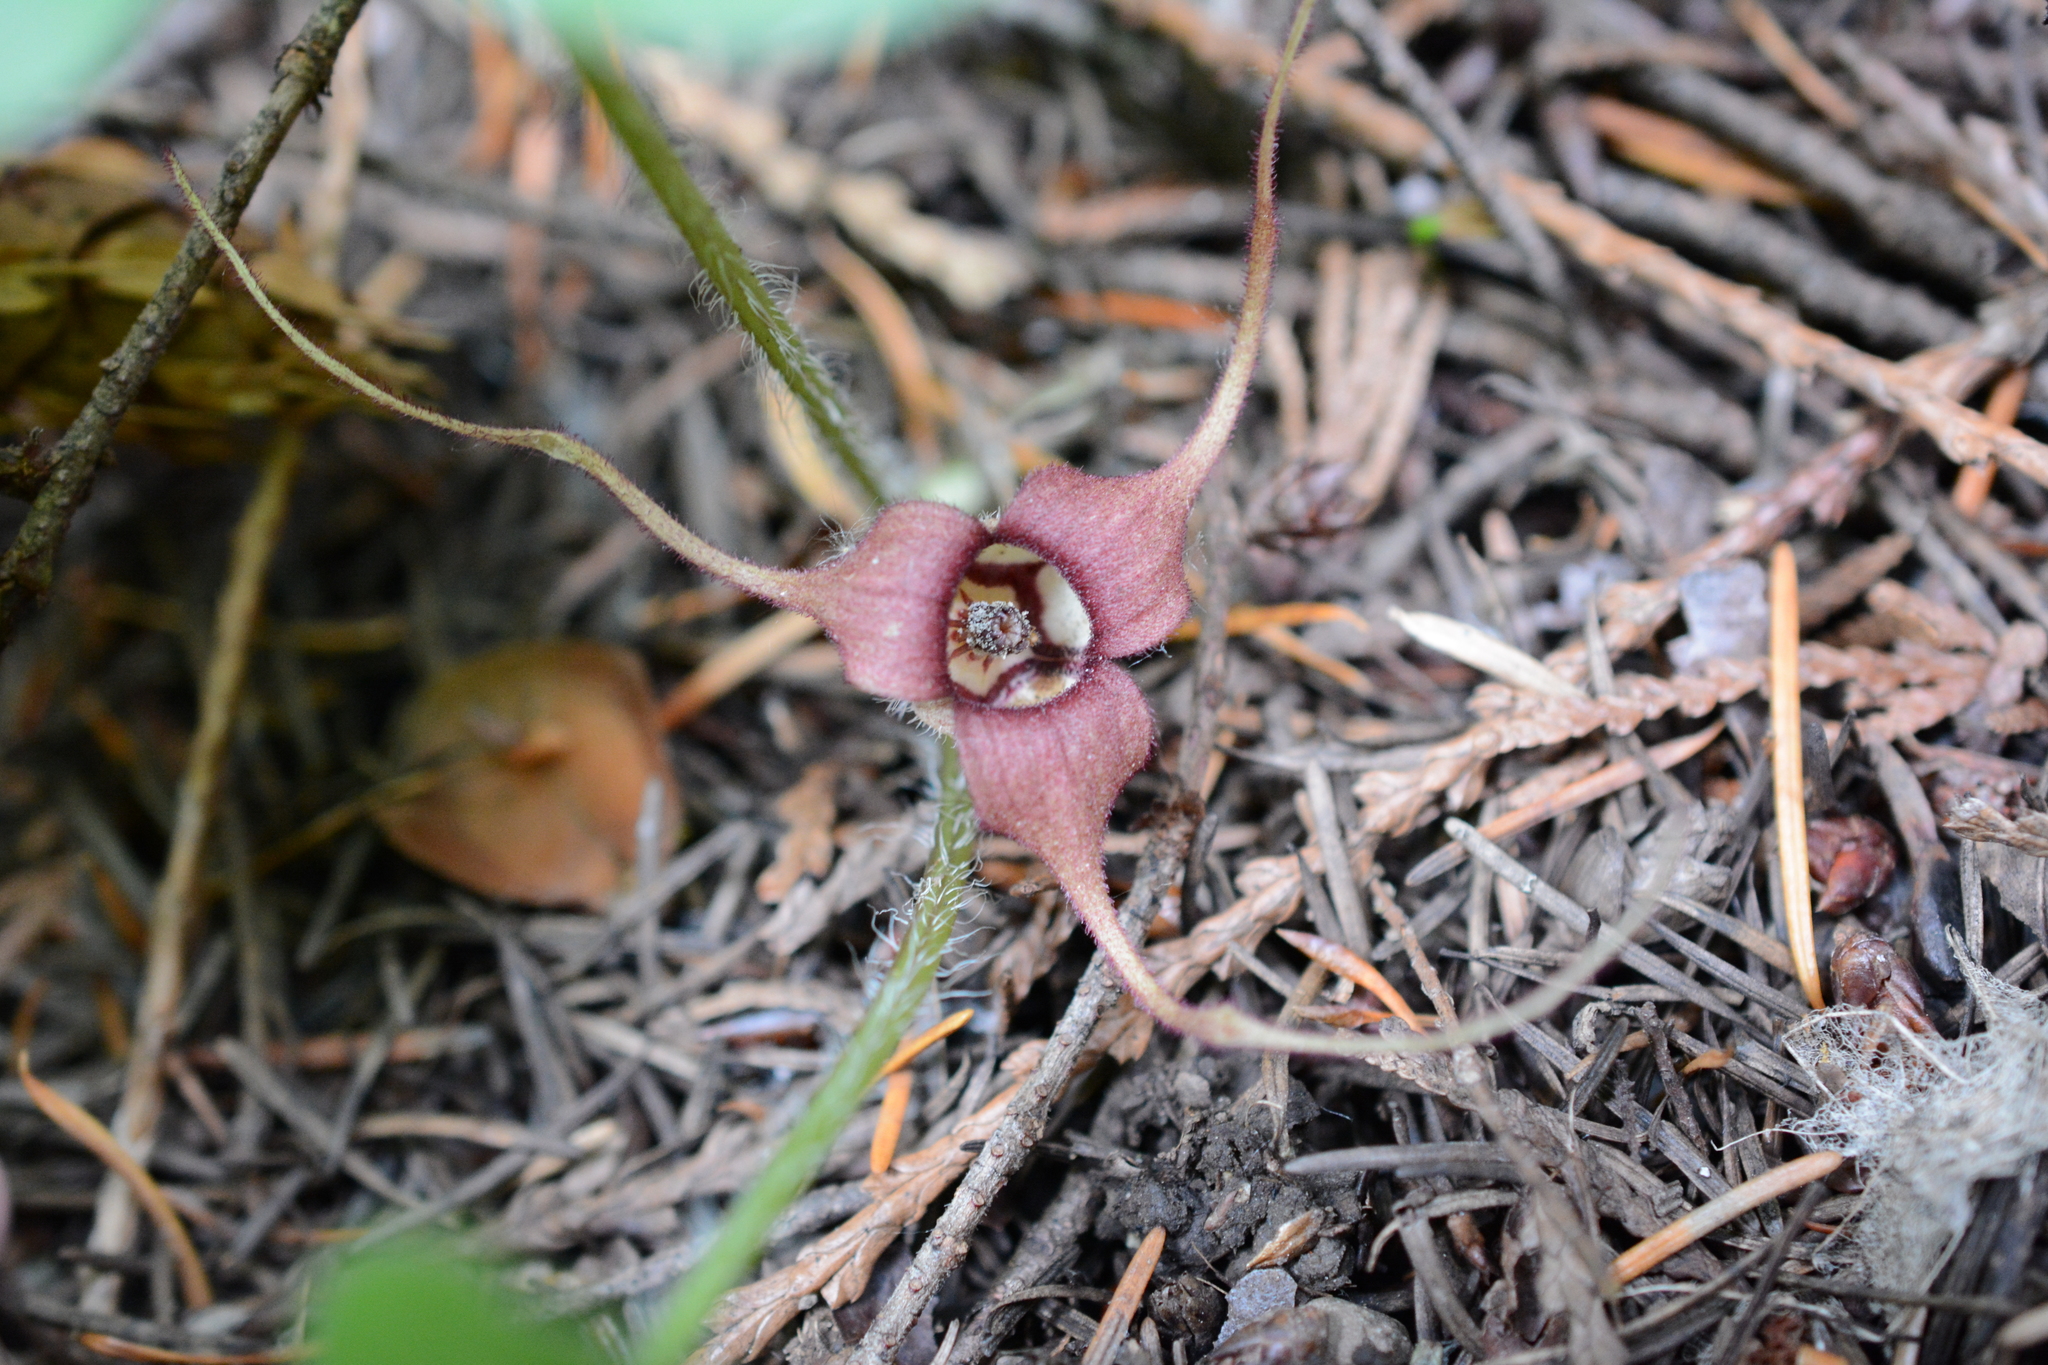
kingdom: Plantae
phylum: Tracheophyta
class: Magnoliopsida
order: Piperales
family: Aristolochiaceae
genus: Asarum
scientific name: Asarum caudatum
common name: Wild ginger
